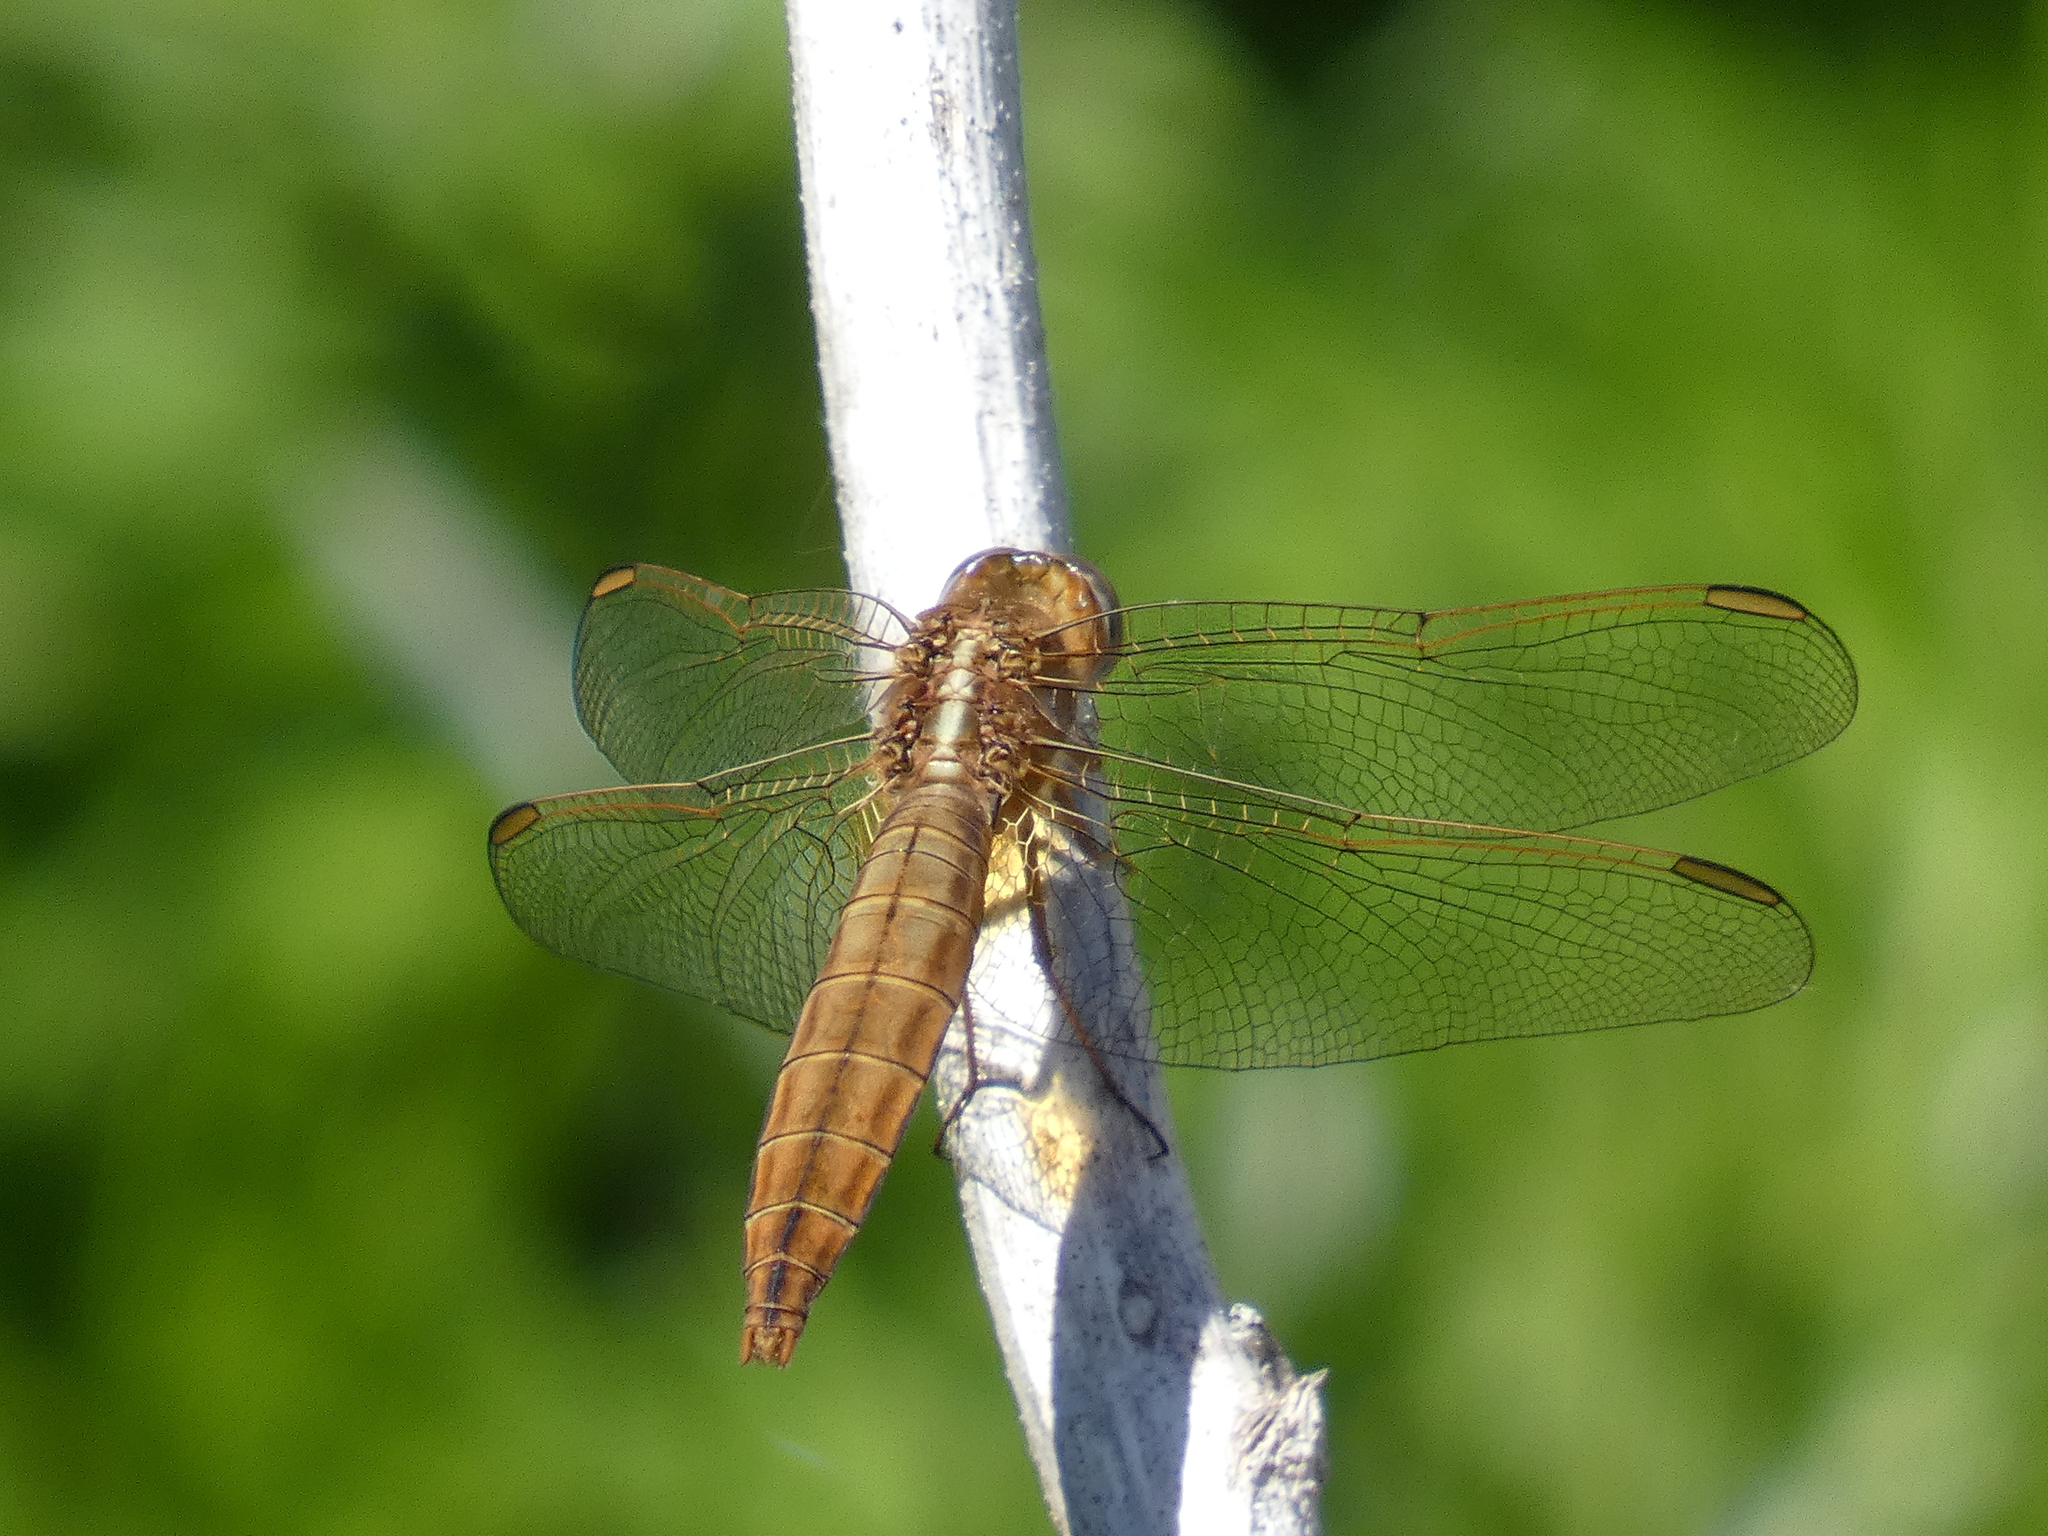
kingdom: Animalia
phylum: Arthropoda
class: Insecta
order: Odonata
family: Libellulidae
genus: Crocothemis
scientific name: Crocothemis erythraea
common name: Scarlet dragonfly
